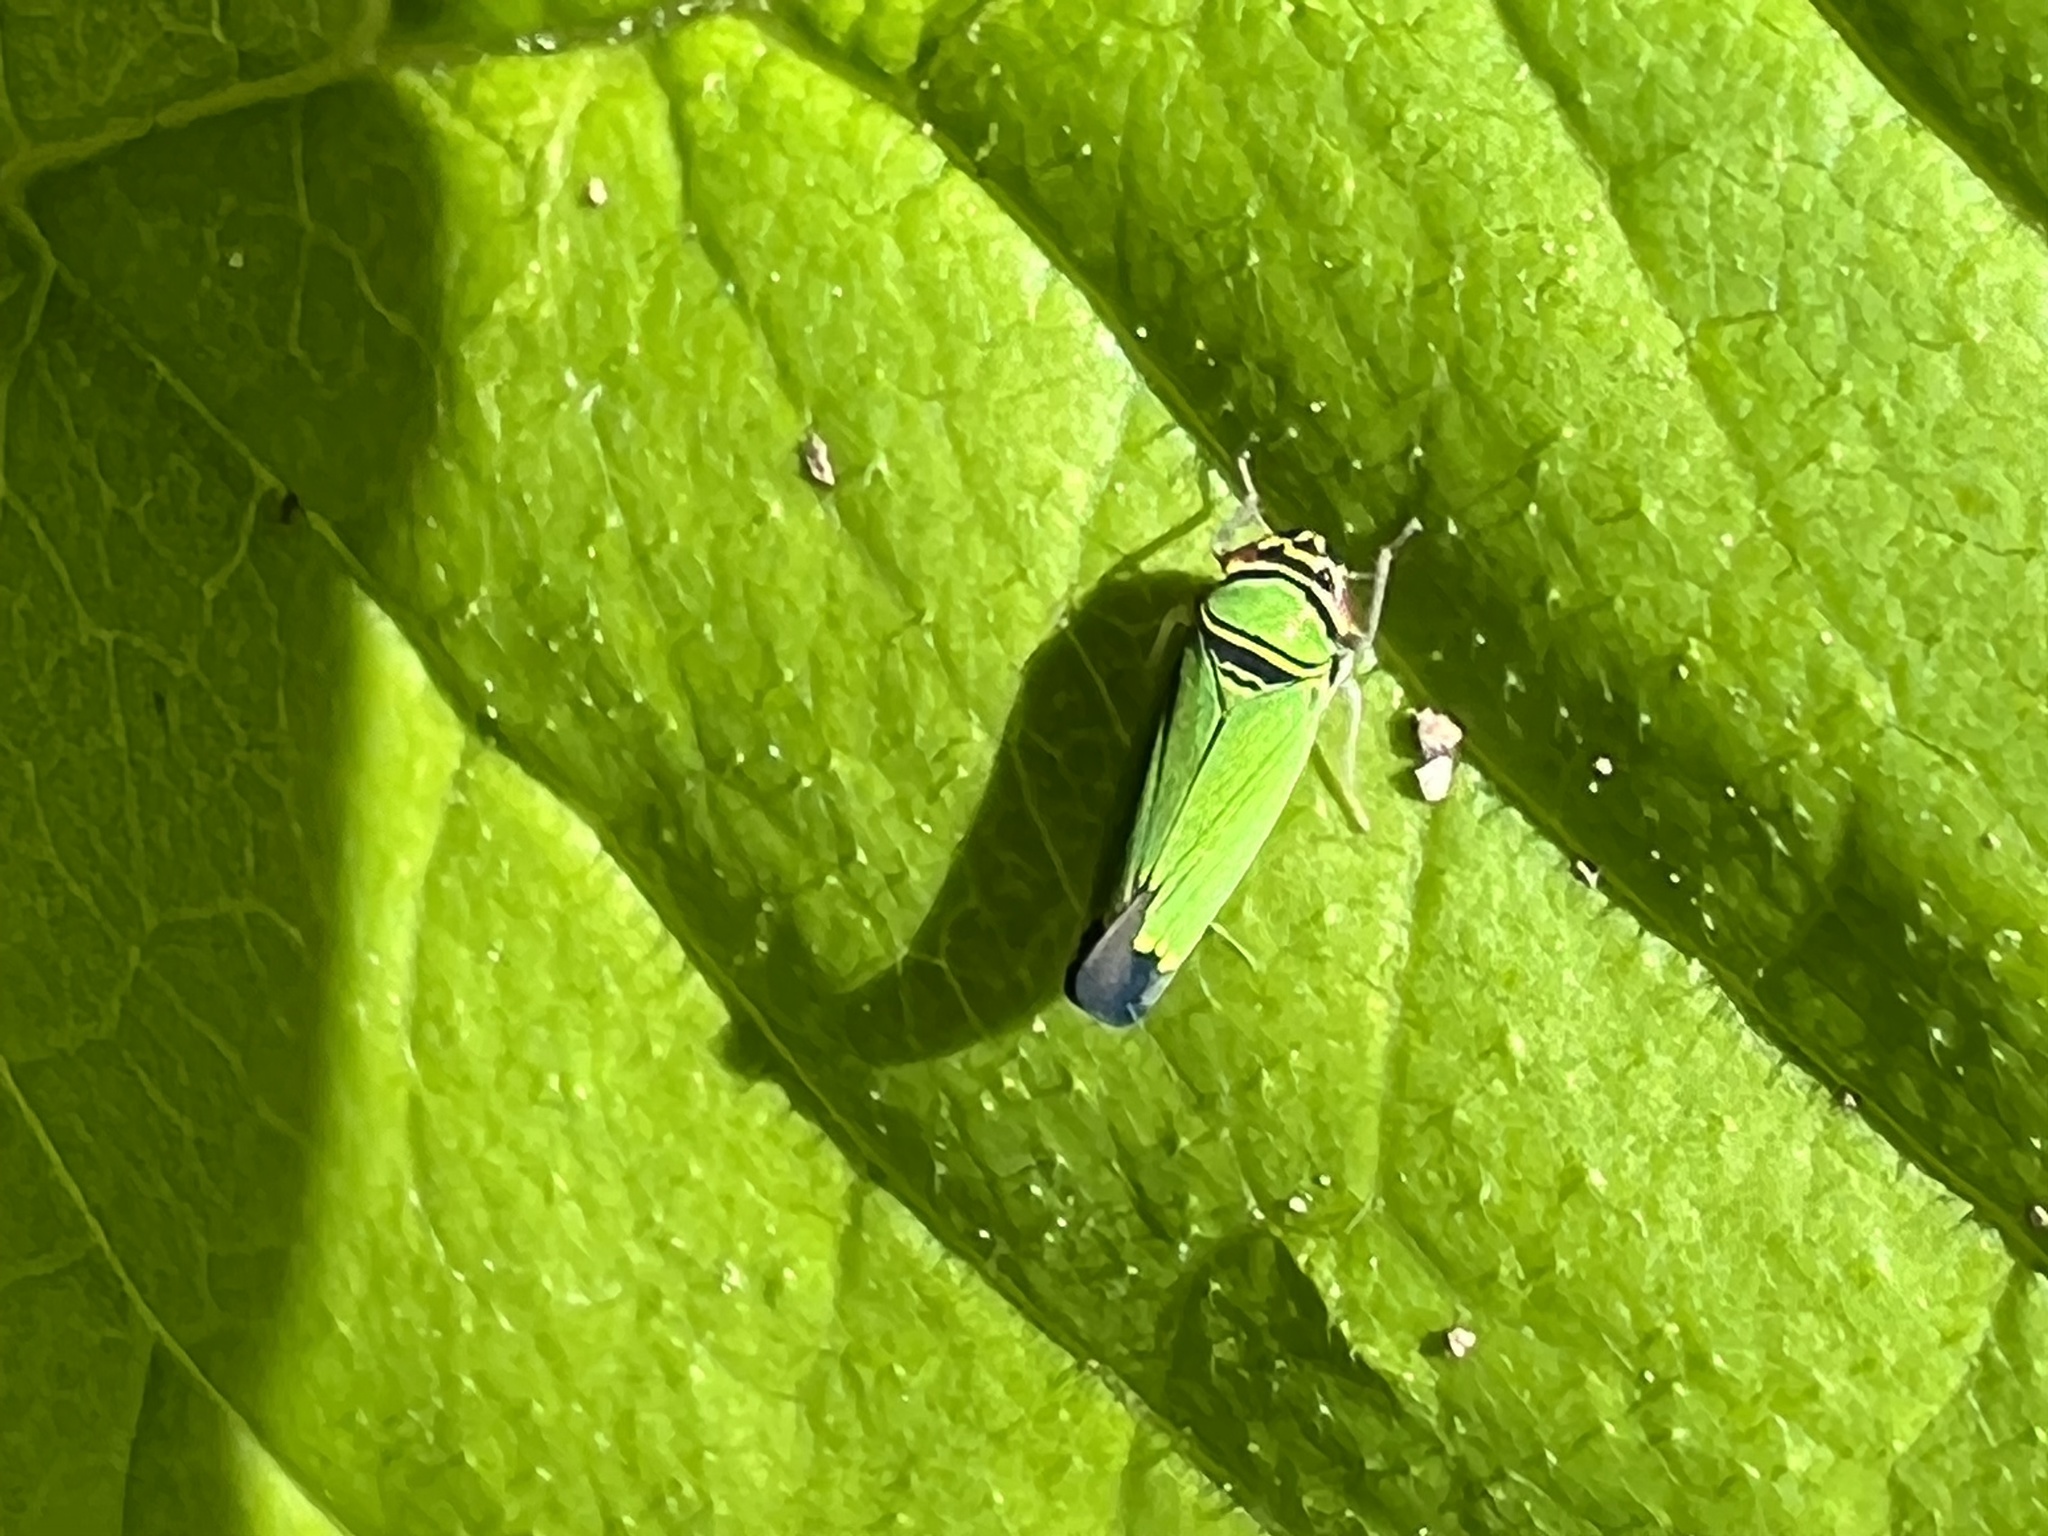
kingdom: Animalia
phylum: Arthropoda
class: Insecta
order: Hemiptera
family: Cicadellidae
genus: Tylozygus
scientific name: Tylozygus geometricus
